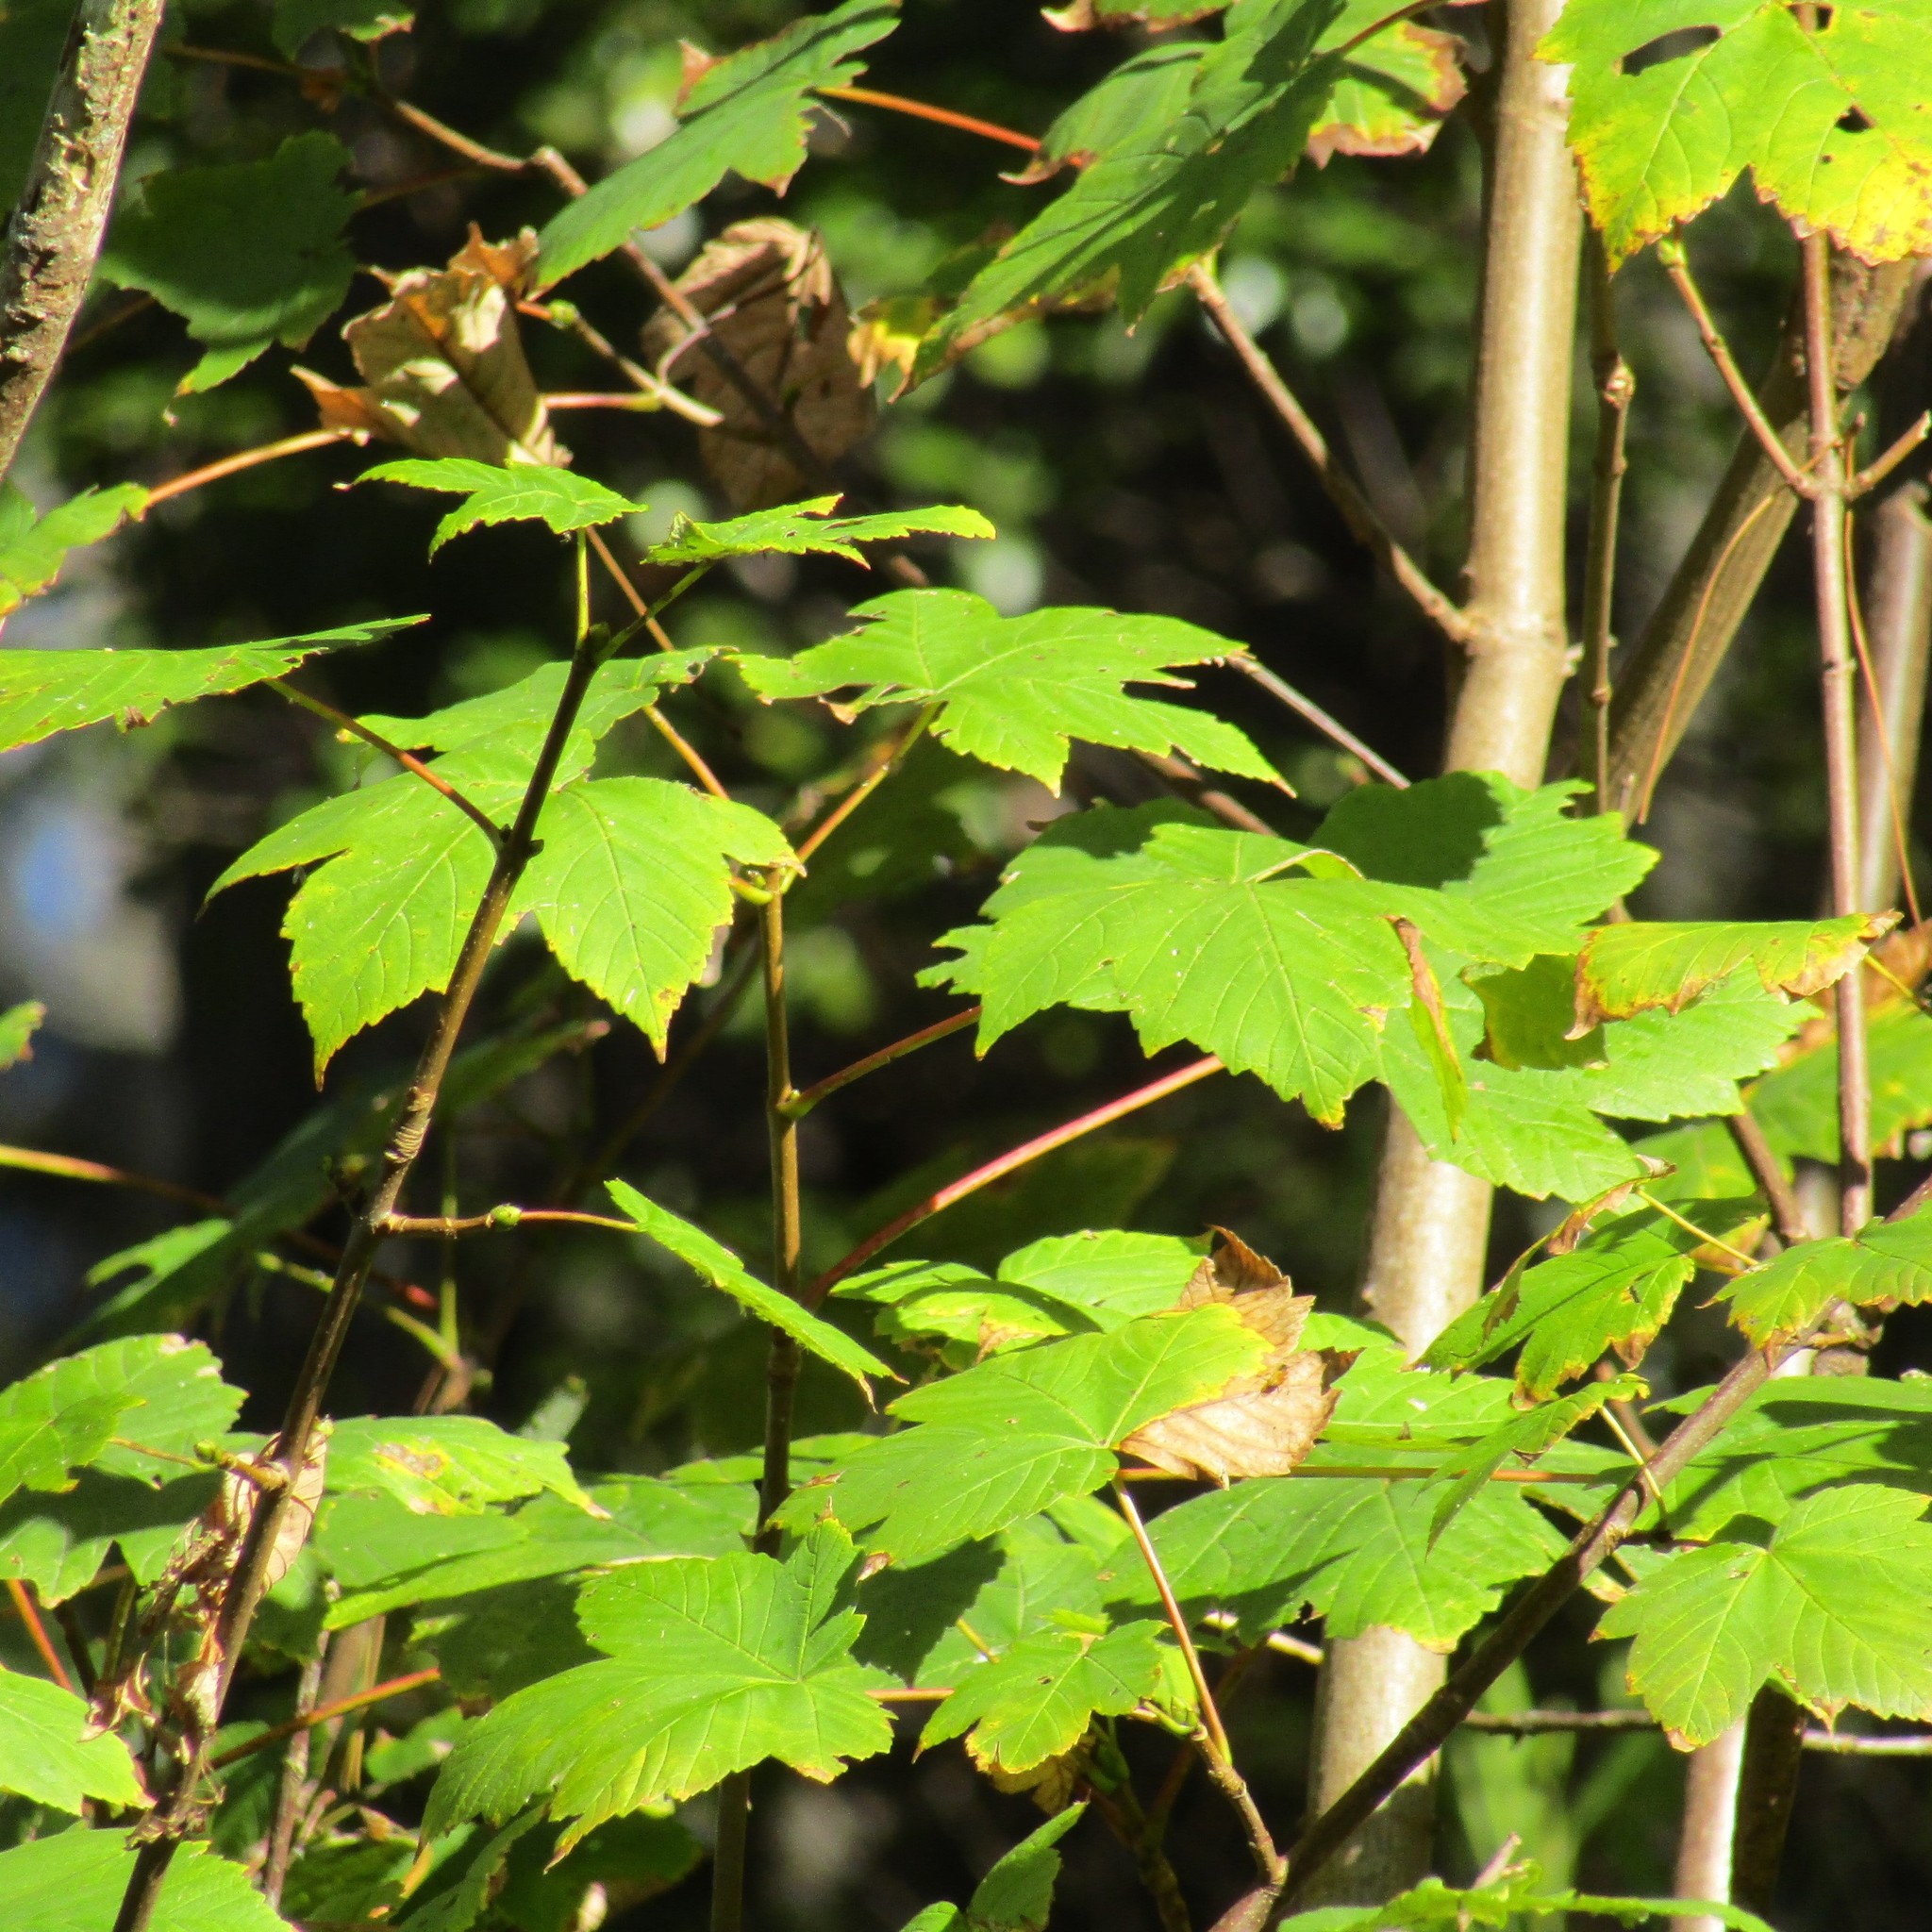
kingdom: Plantae
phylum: Tracheophyta
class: Magnoliopsida
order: Sapindales
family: Sapindaceae
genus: Acer
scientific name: Acer pseudoplatanus
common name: Sycamore
